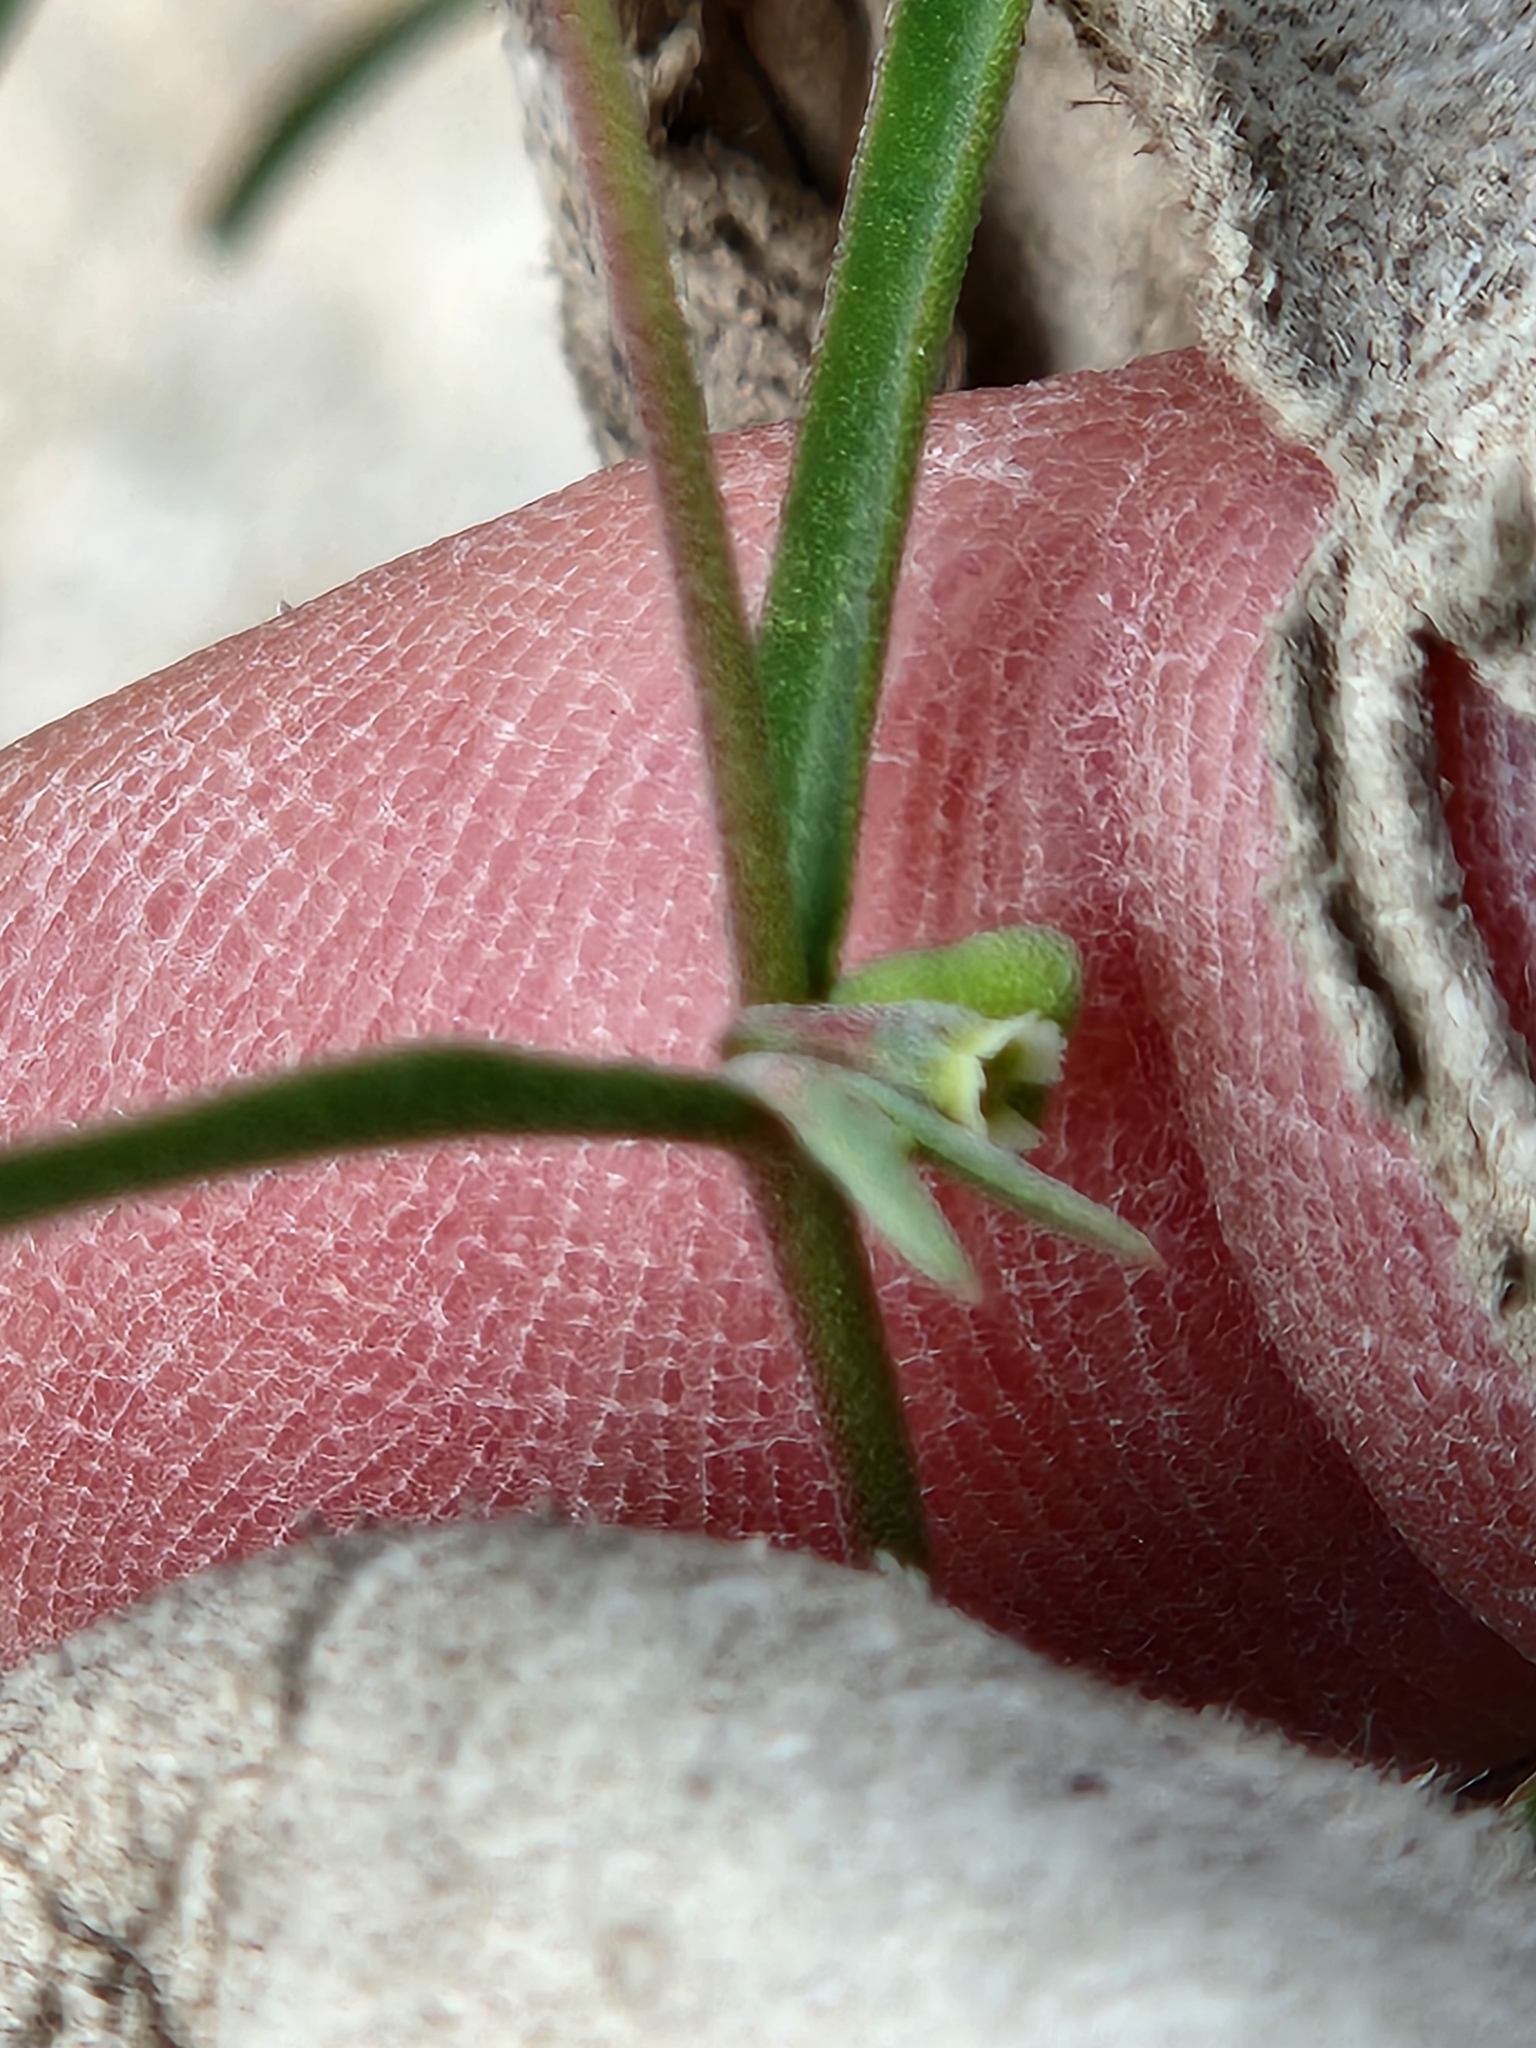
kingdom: Plantae
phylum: Tracheophyta
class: Magnoliopsida
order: Malpighiales
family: Euphorbiaceae
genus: Euphorbia
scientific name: Euphorbia angusta
